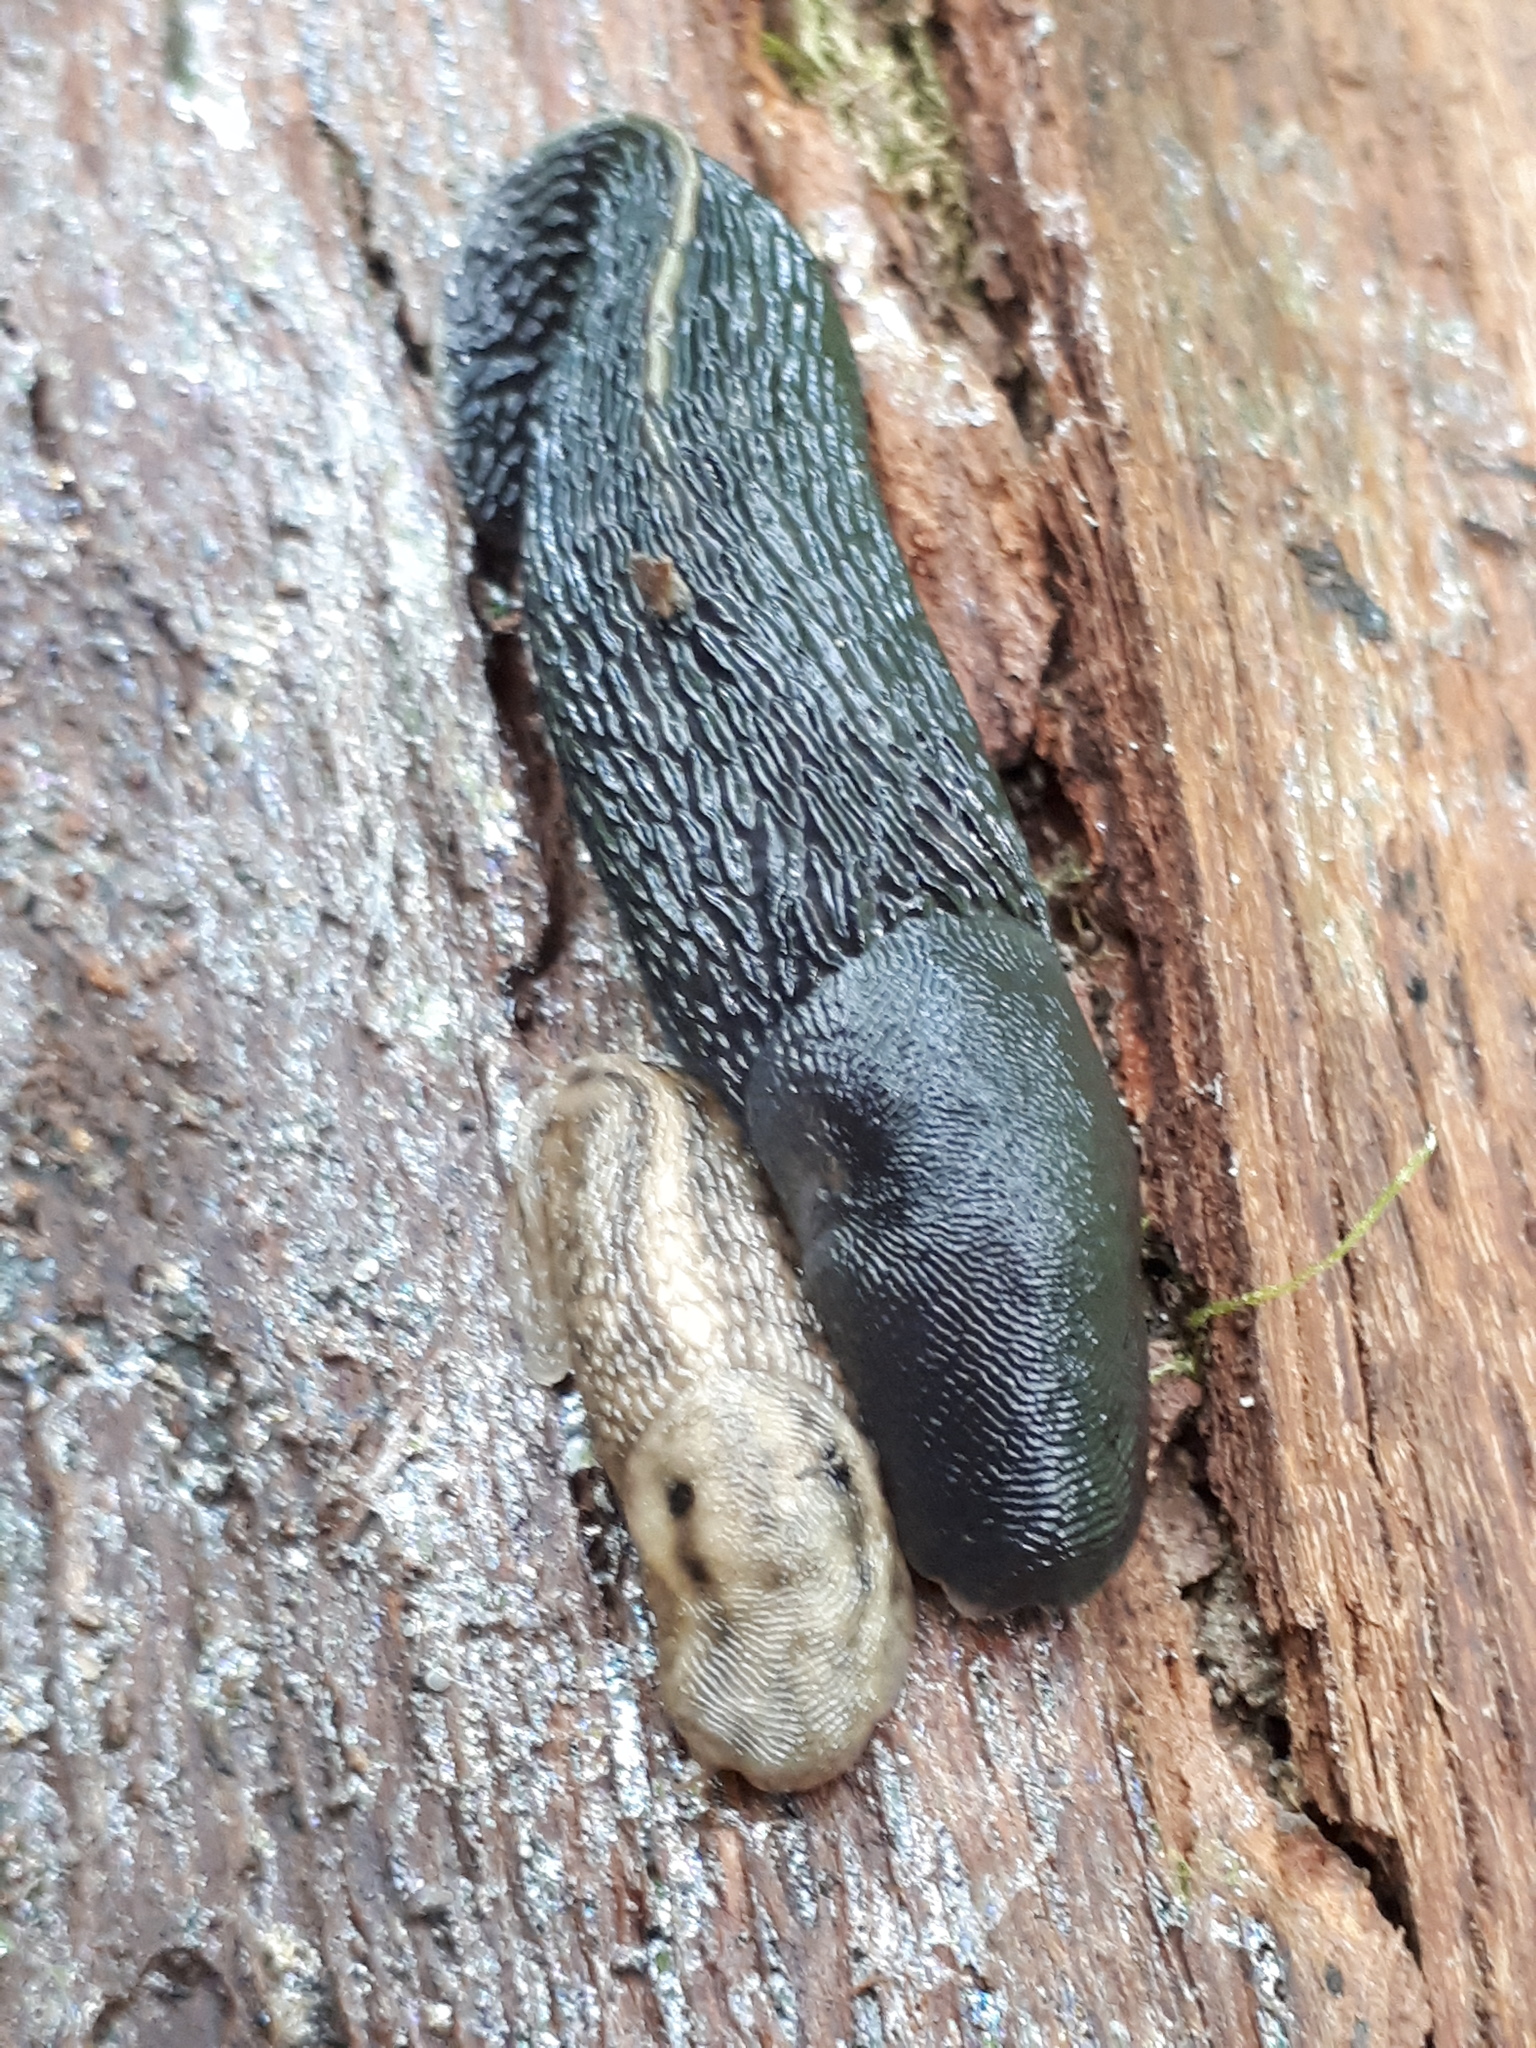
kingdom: Animalia
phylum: Mollusca
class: Gastropoda
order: Stylommatophora
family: Limacidae
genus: Limax
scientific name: Limax cinereoniger
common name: Ash-black slug
